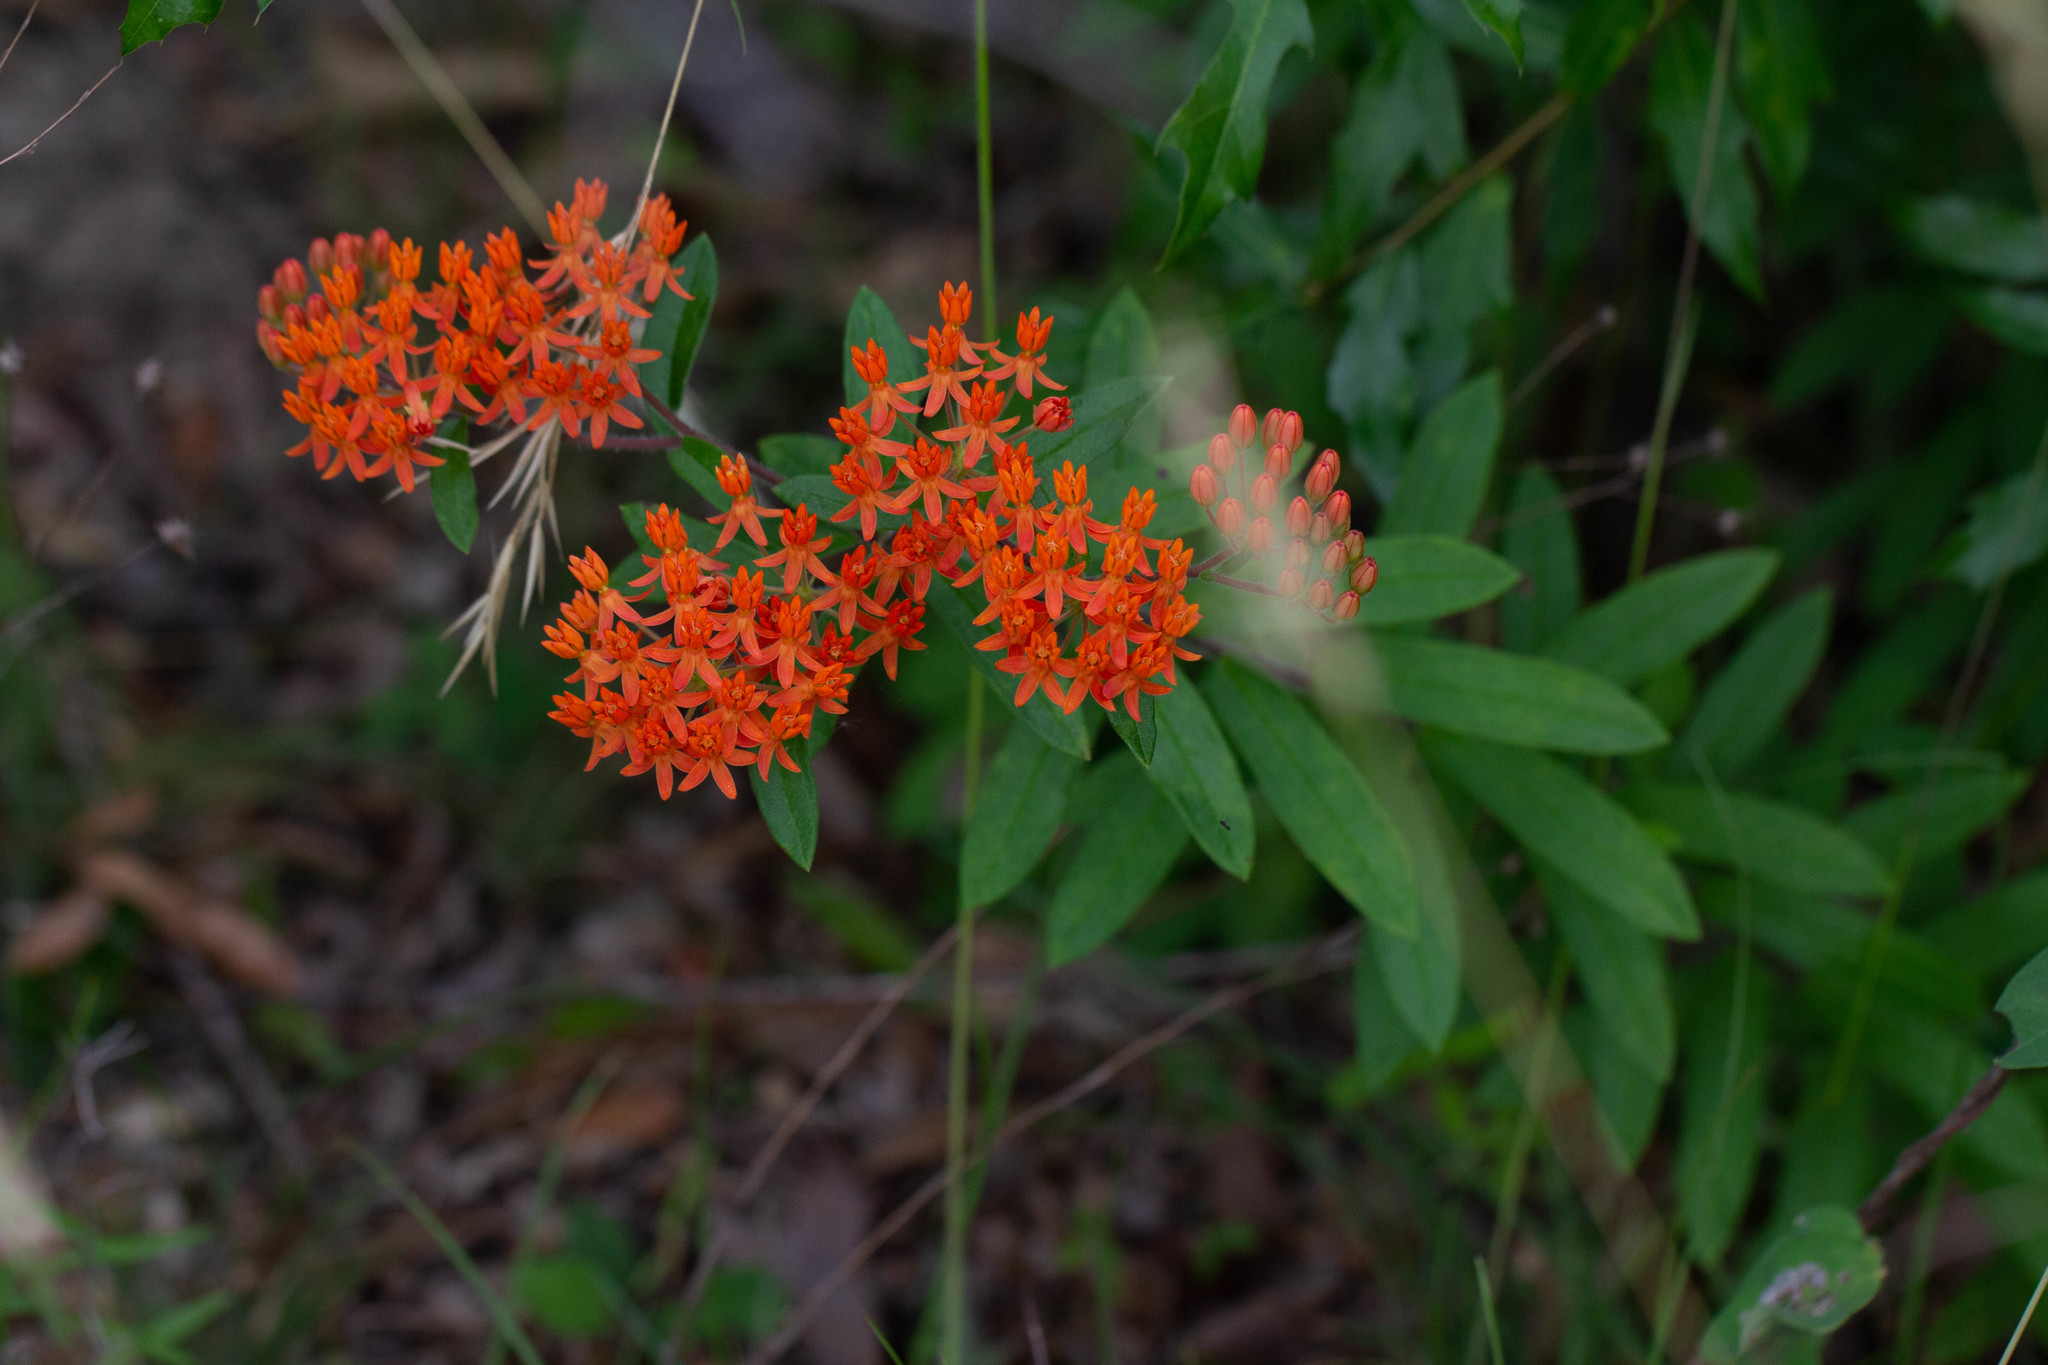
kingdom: Plantae
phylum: Tracheophyta
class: Magnoliopsida
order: Gentianales
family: Apocynaceae
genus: Asclepias
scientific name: Asclepias tuberosa
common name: Butterfly milkweed
